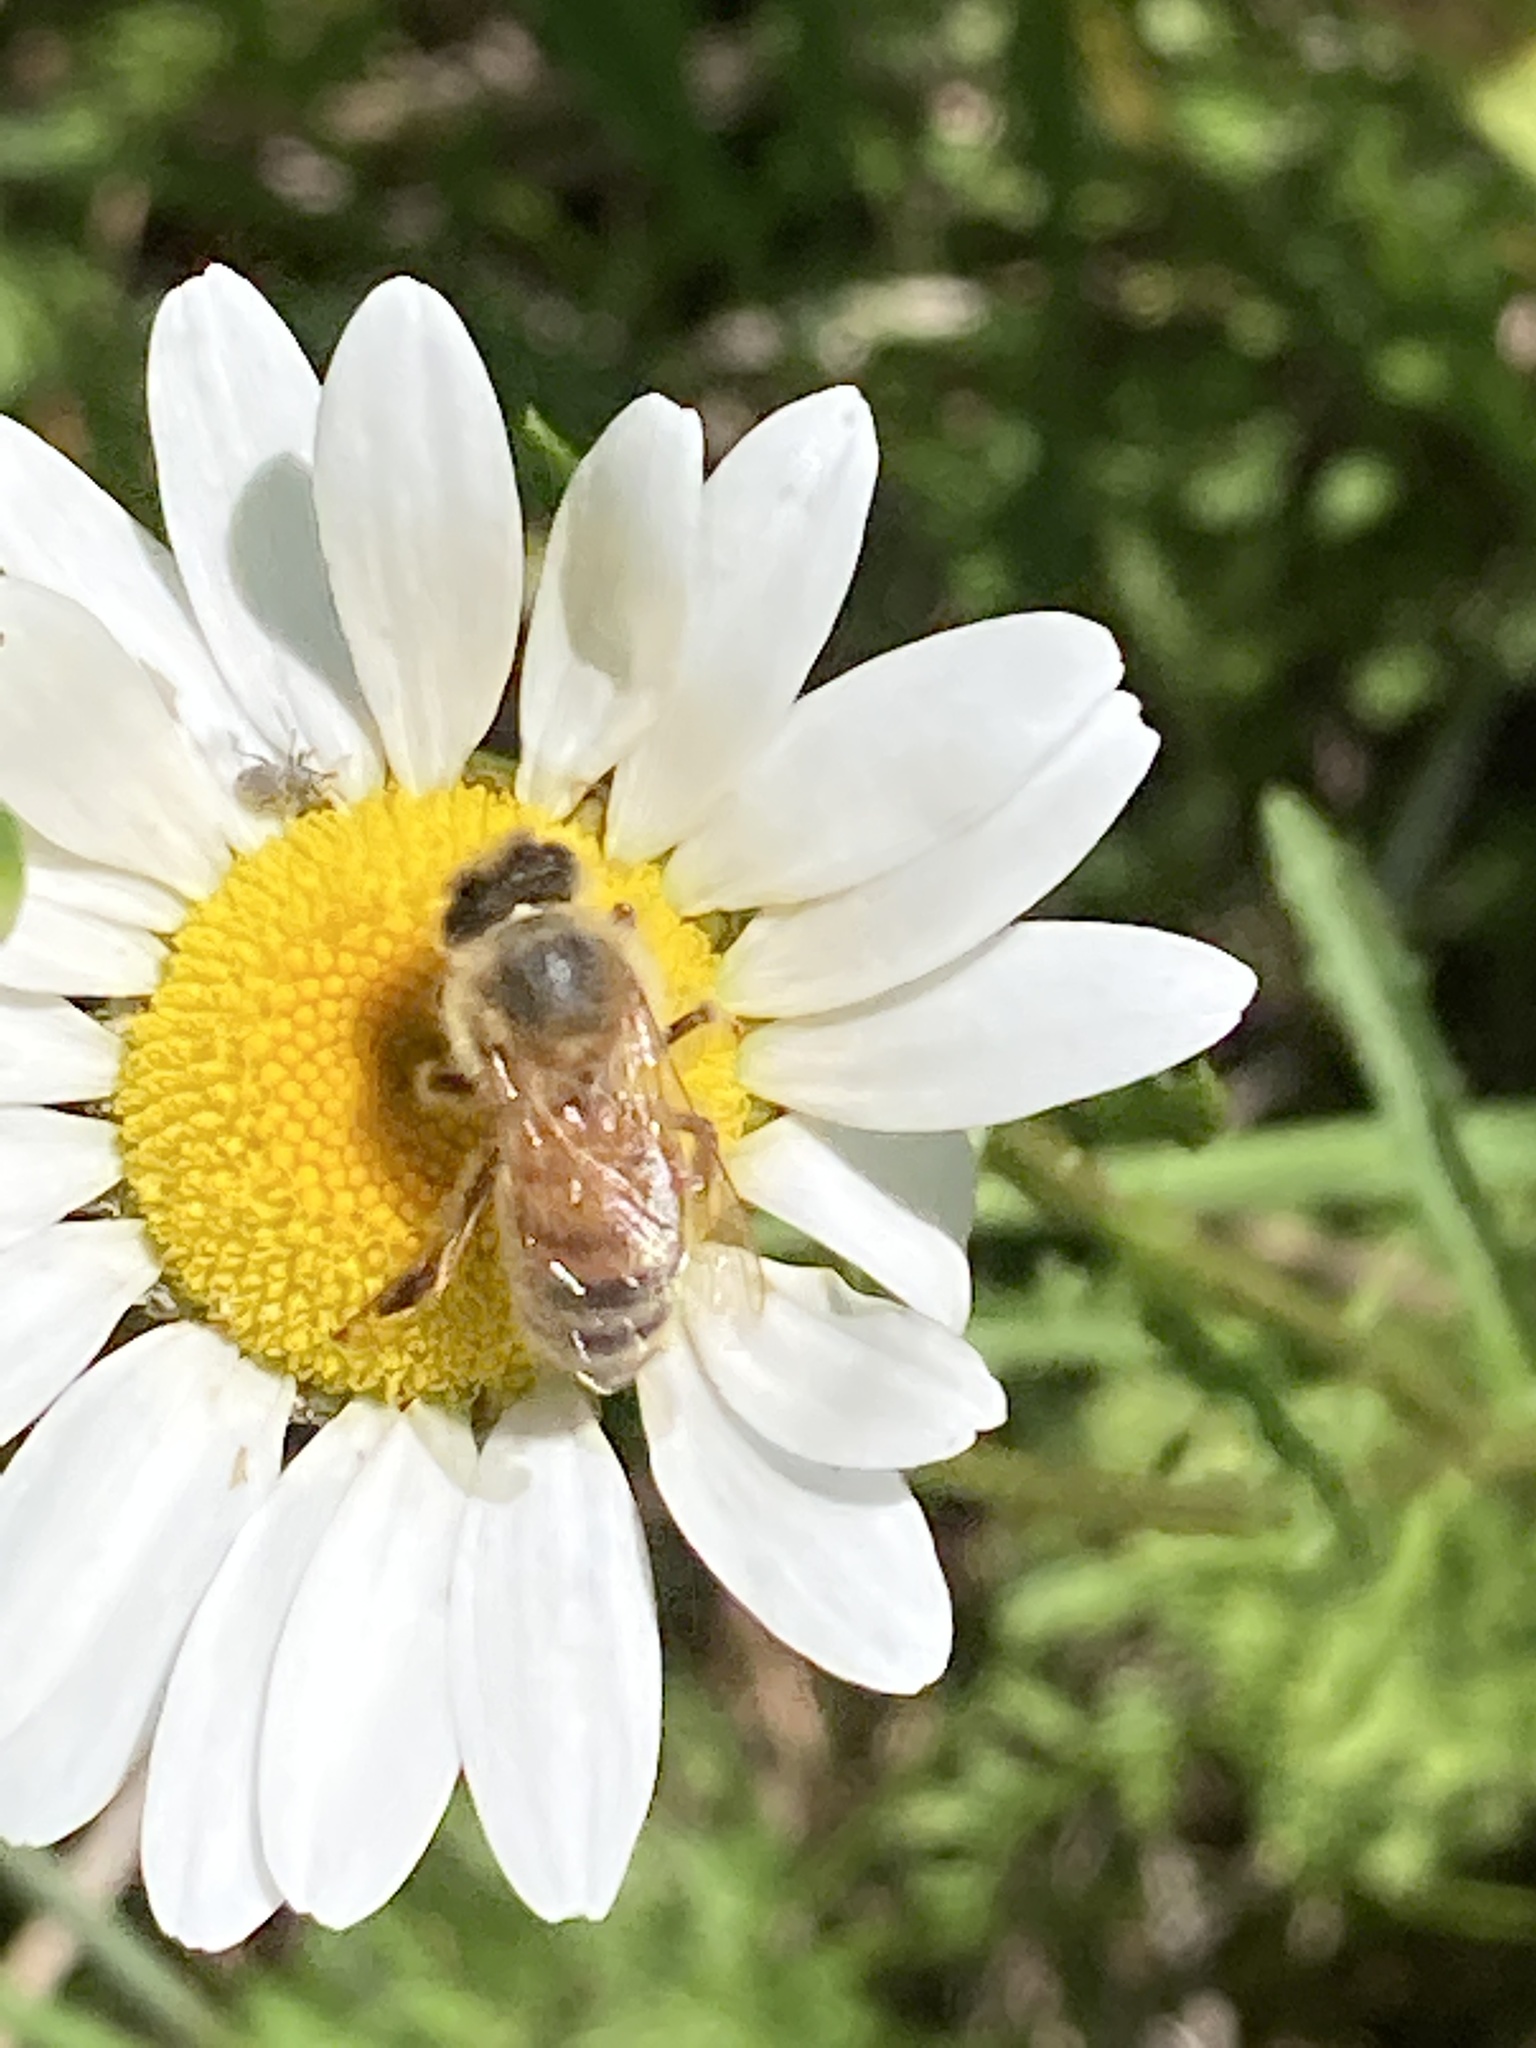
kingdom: Animalia
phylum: Arthropoda
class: Insecta
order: Hymenoptera
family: Apidae
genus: Apis
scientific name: Apis mellifera
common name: Honey bee
